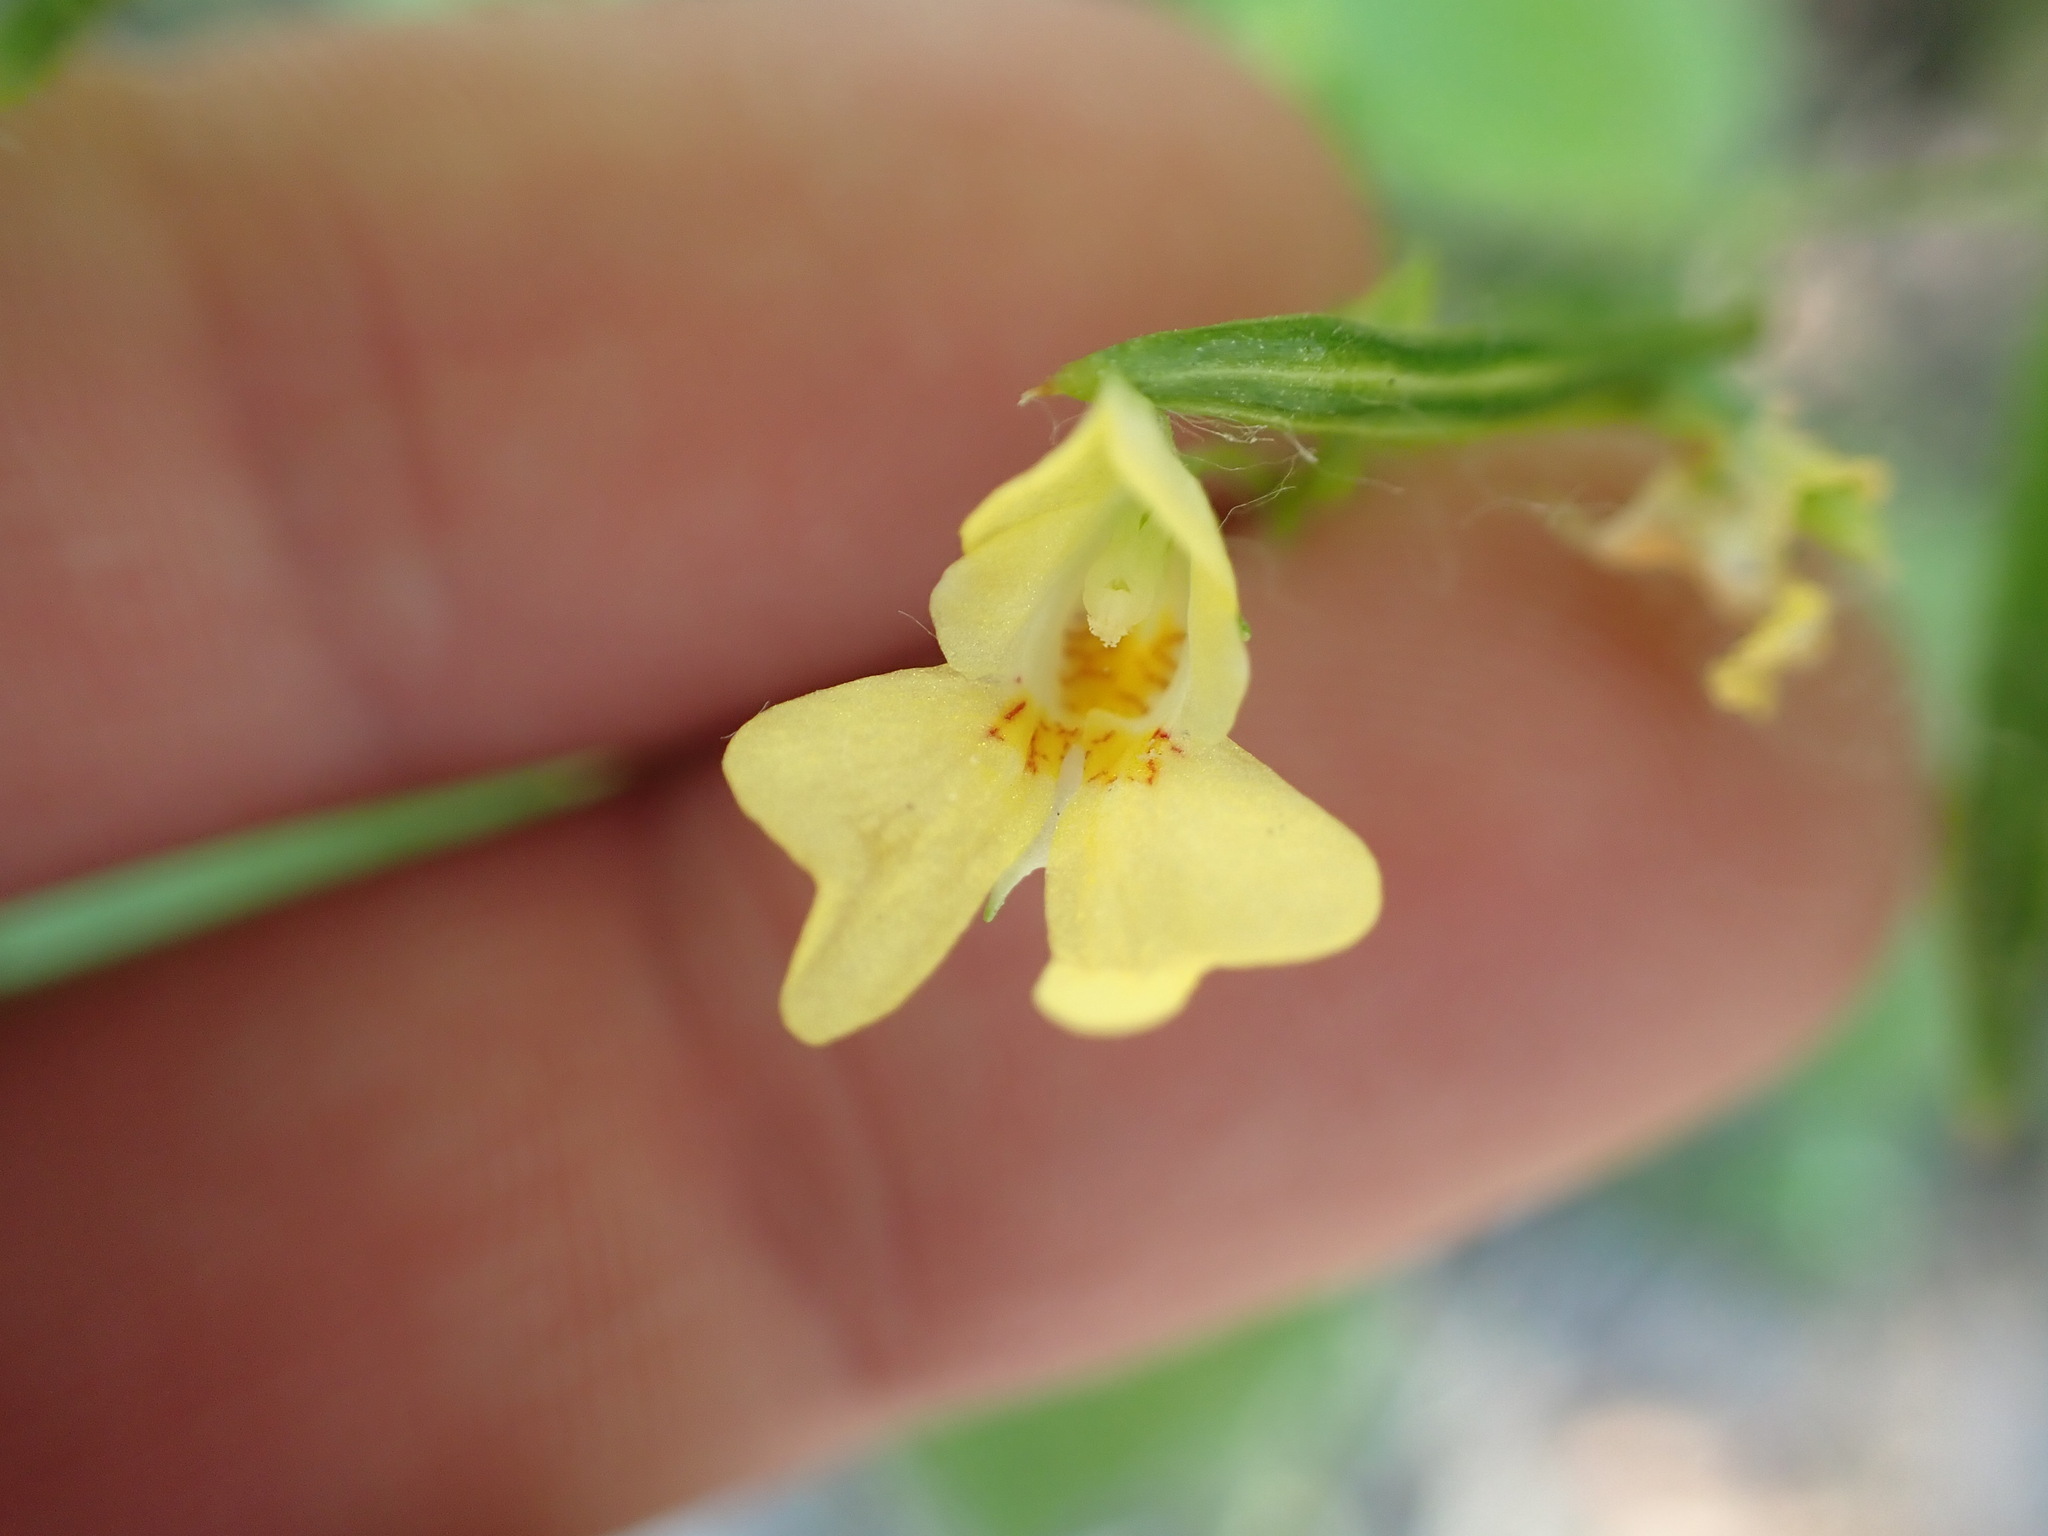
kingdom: Plantae
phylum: Tracheophyta
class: Magnoliopsida
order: Ericales
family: Balsaminaceae
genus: Impatiens
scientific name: Impatiens parviflora
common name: Small balsam
